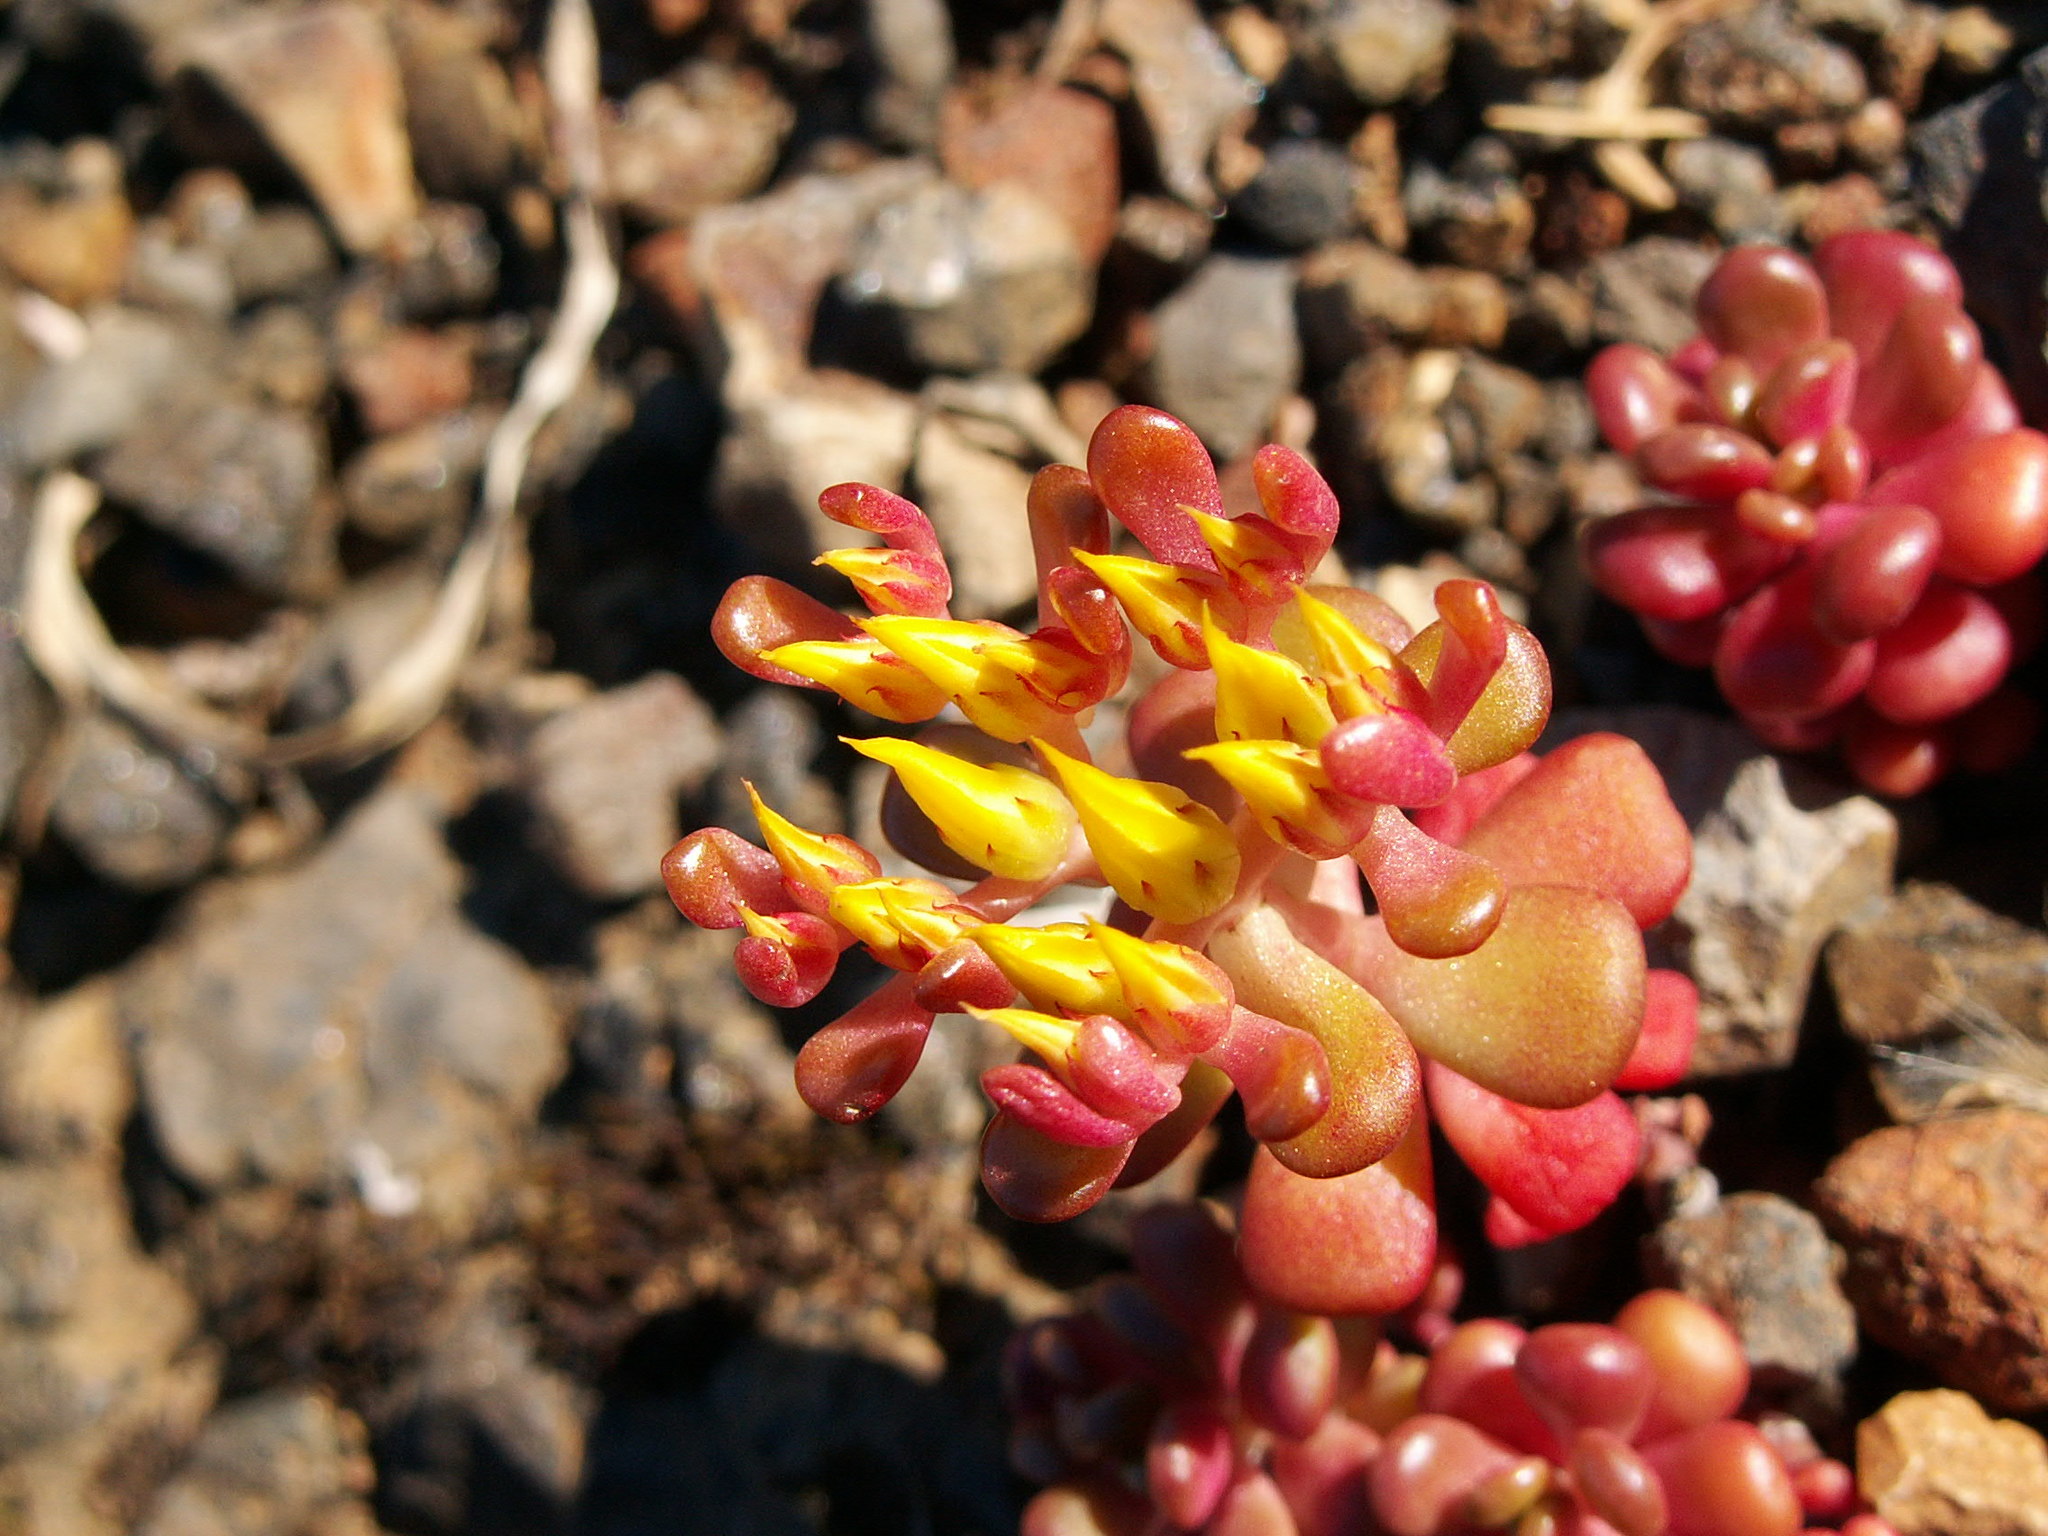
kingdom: Plantae
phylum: Tracheophyta
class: Magnoliopsida
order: Saxifragales
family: Crassulaceae
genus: Sedum
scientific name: Sedum oreganum
